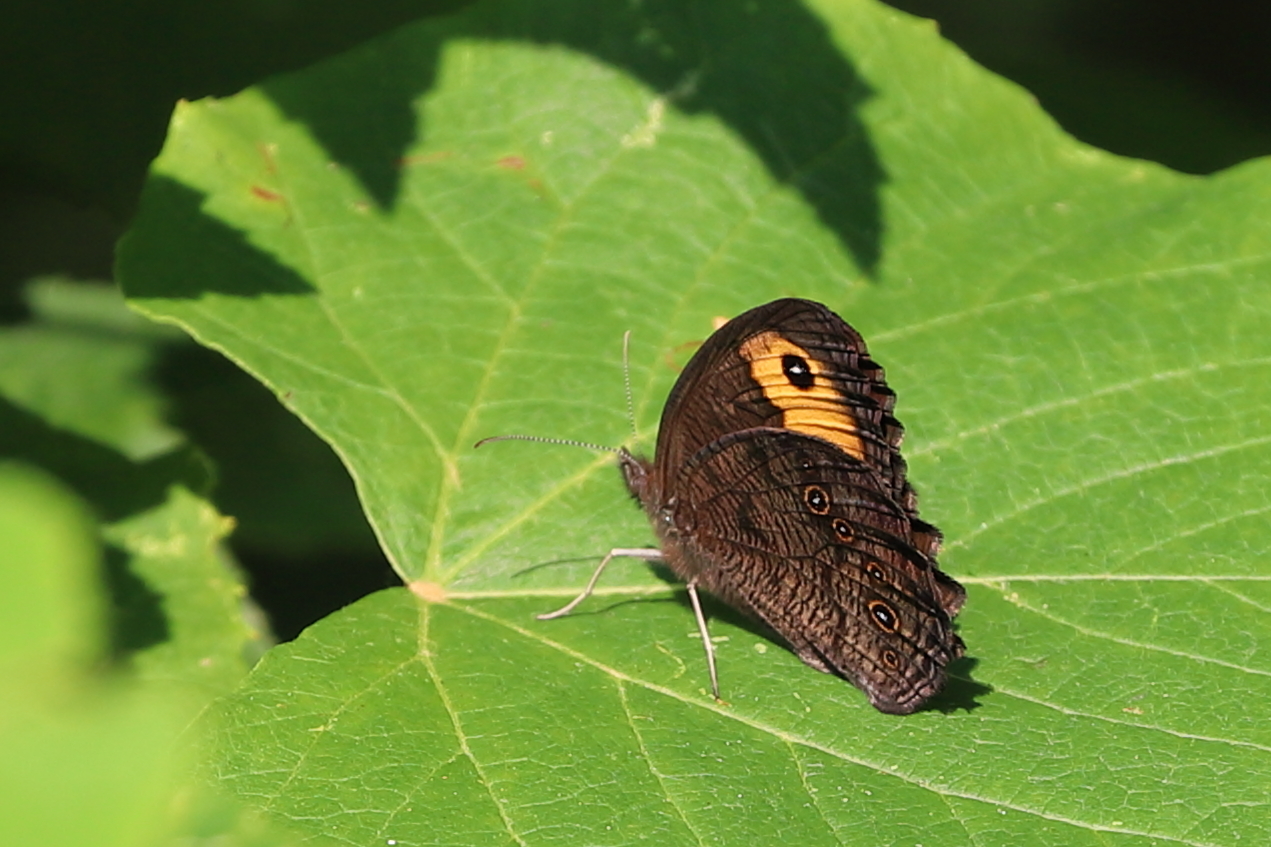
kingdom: Animalia
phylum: Arthropoda
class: Insecta
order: Lepidoptera
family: Nymphalidae
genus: Cercyonis
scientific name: Cercyonis pegala
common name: Common wood-nymph
